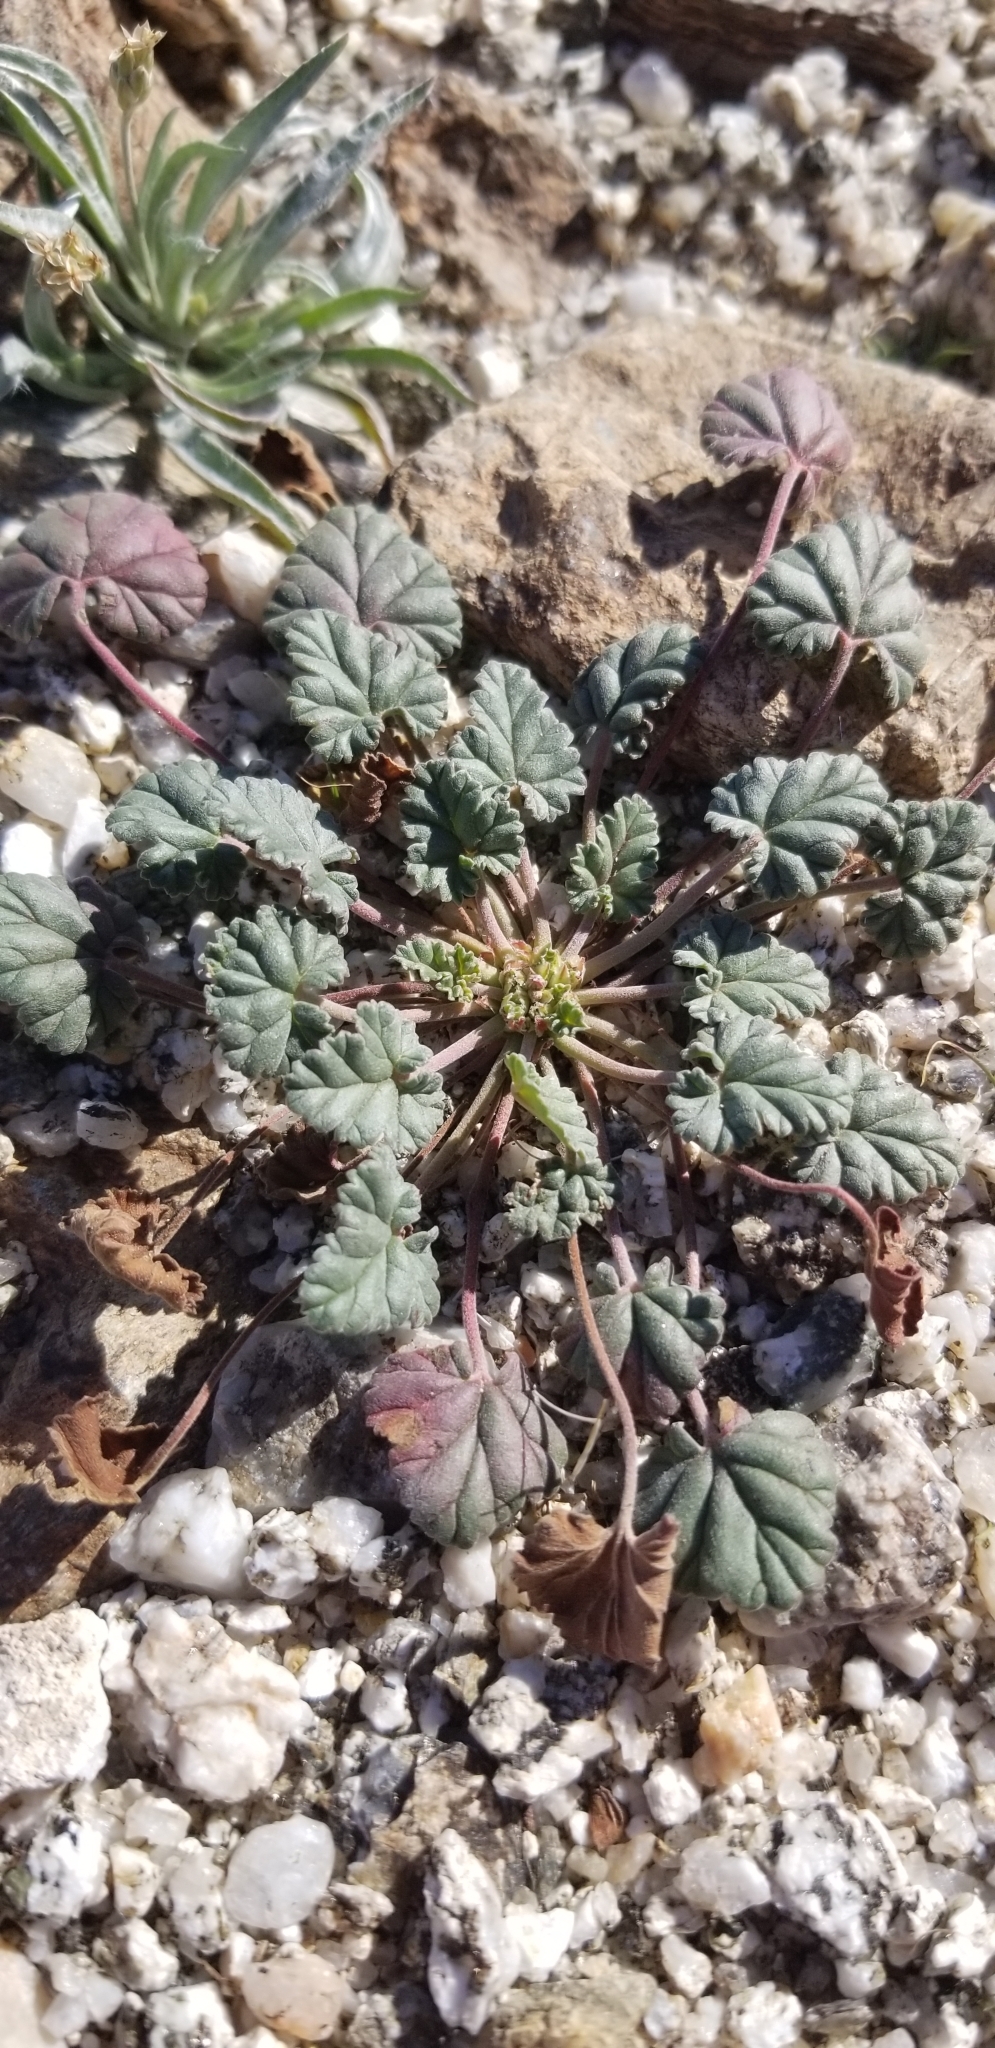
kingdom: Plantae
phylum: Tracheophyta
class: Magnoliopsida
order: Geraniales
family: Geraniaceae
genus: Erodium
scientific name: Erodium texanum
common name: Texas stork's-bill
